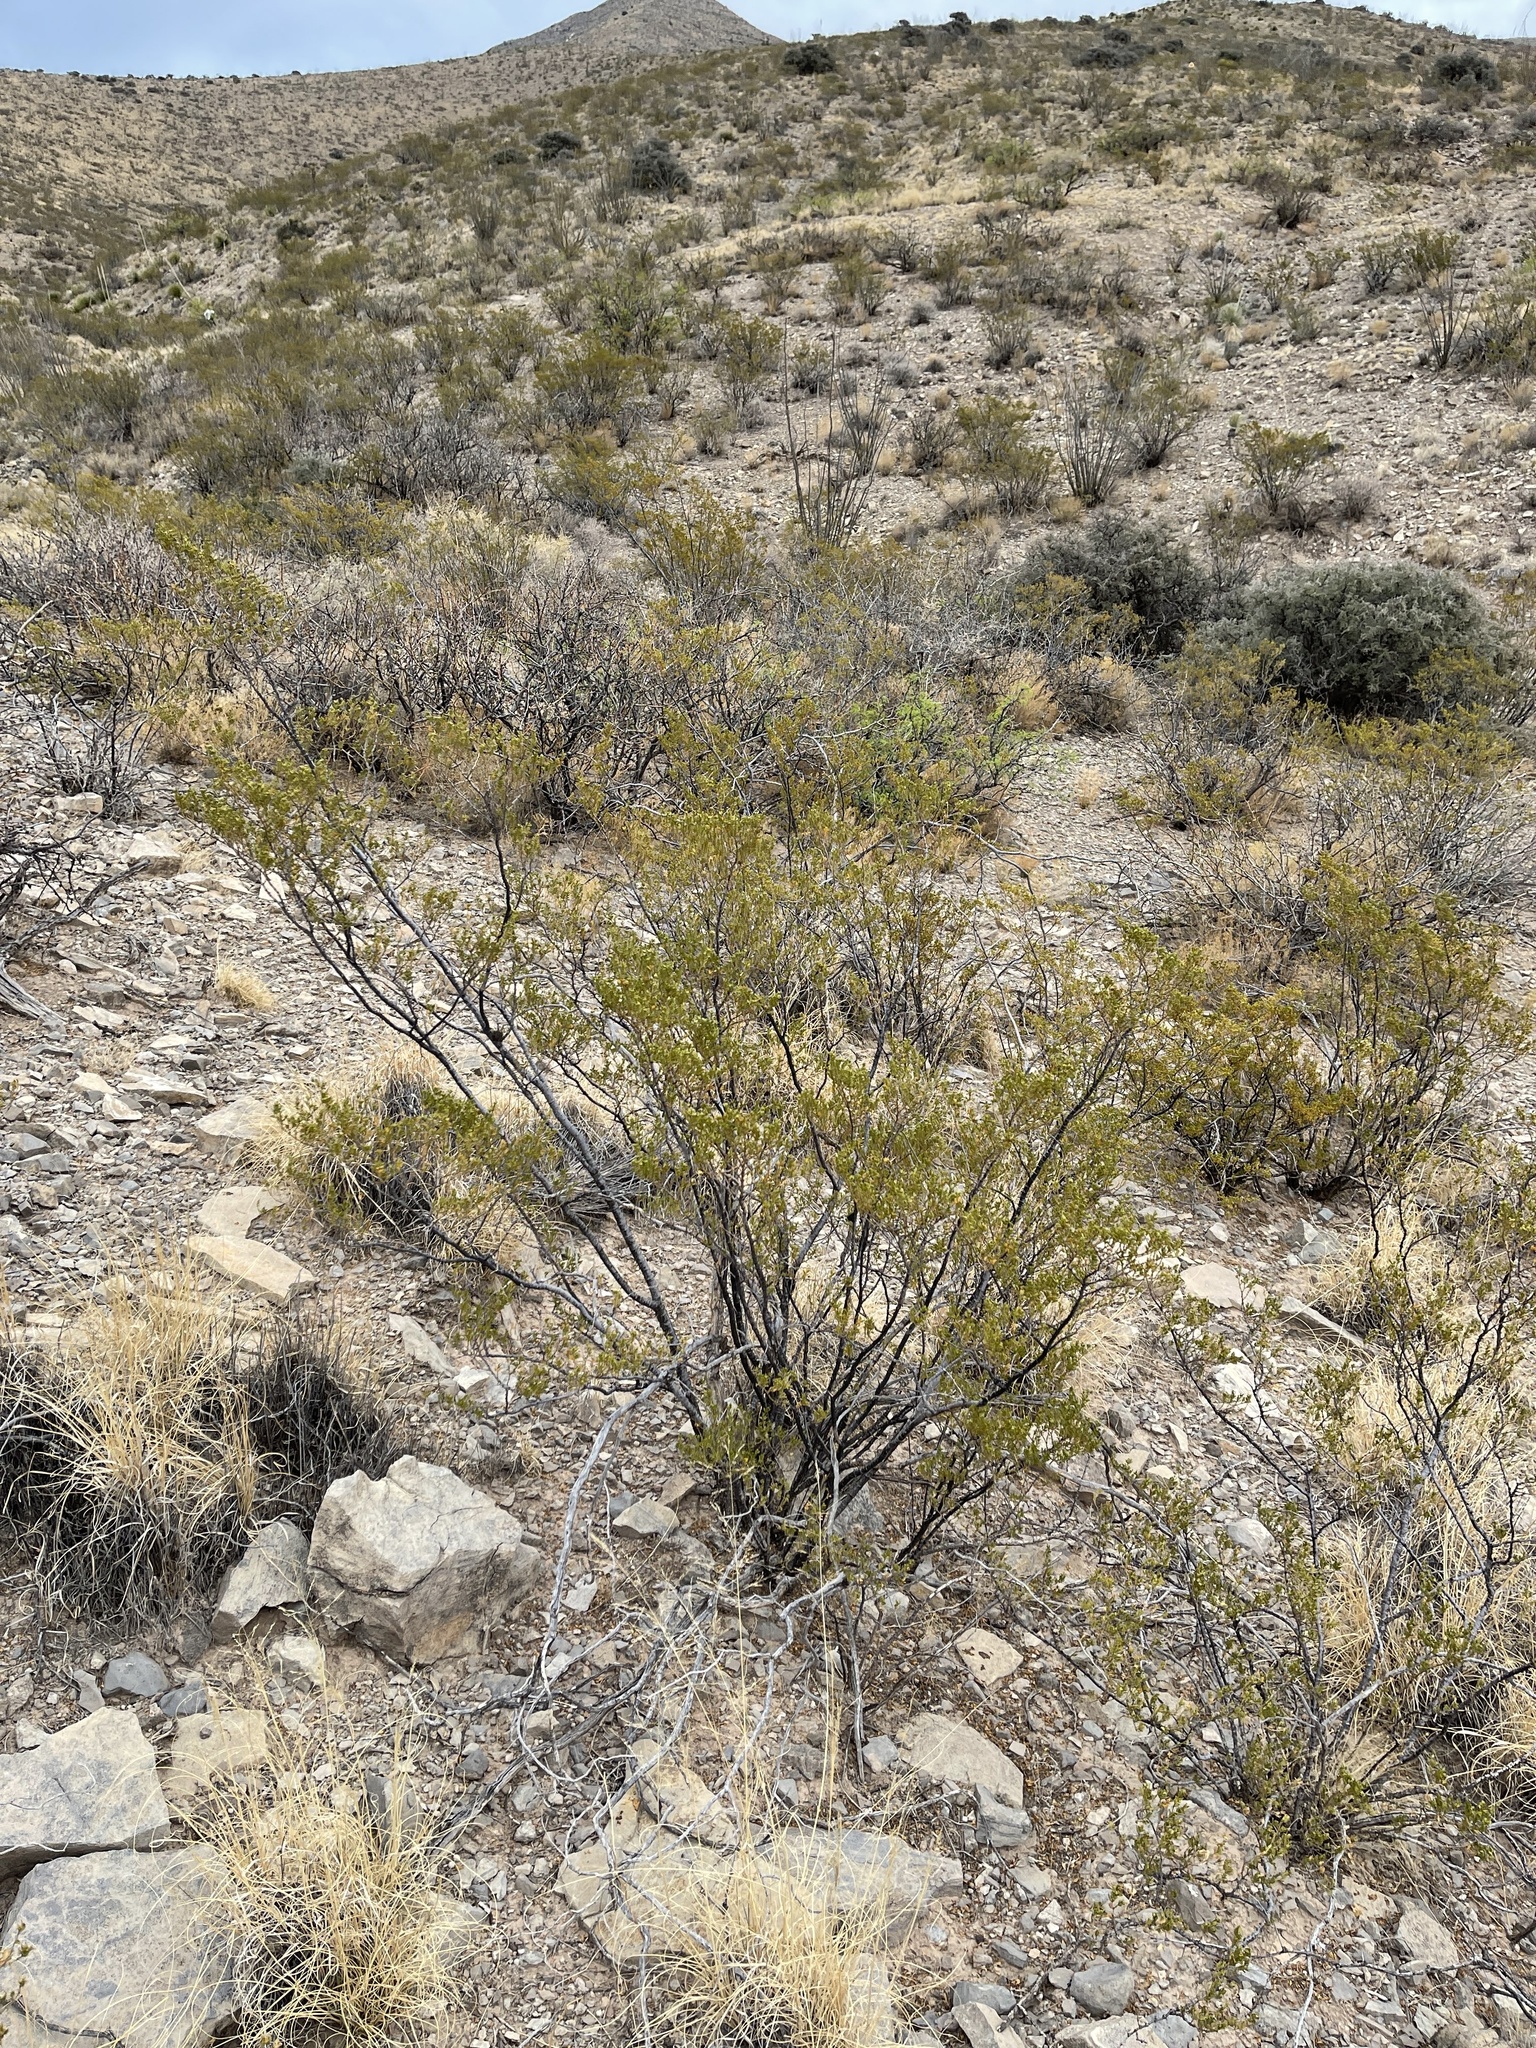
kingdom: Plantae
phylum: Tracheophyta
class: Magnoliopsida
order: Zygophyllales
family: Zygophyllaceae
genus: Larrea
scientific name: Larrea tridentata
